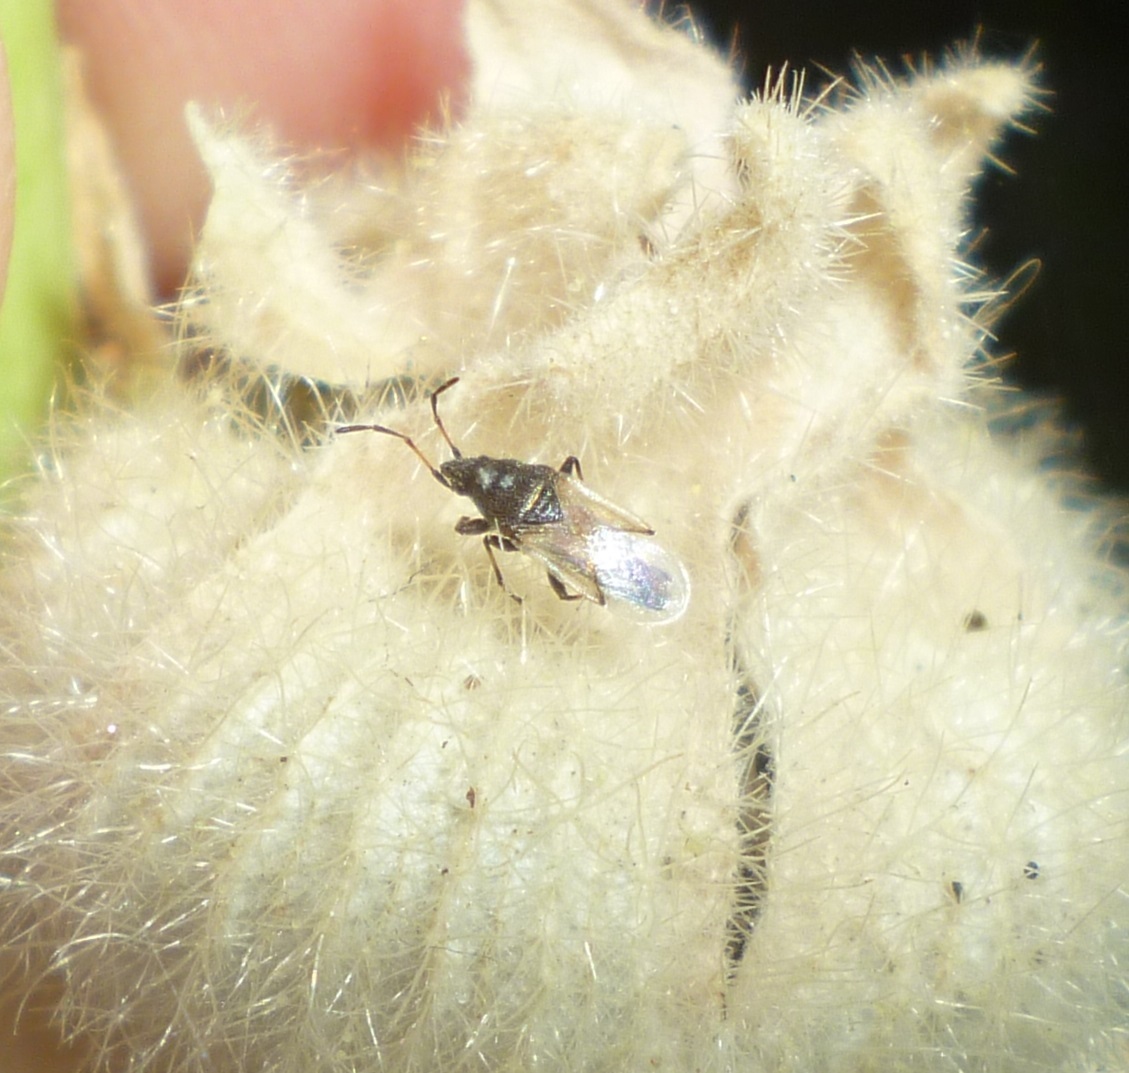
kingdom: Animalia
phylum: Arthropoda
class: Insecta
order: Hemiptera
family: Oxycarenidae
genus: Oxycarenus
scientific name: Oxycarenus hyalinipennis
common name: Cotton seed bug
